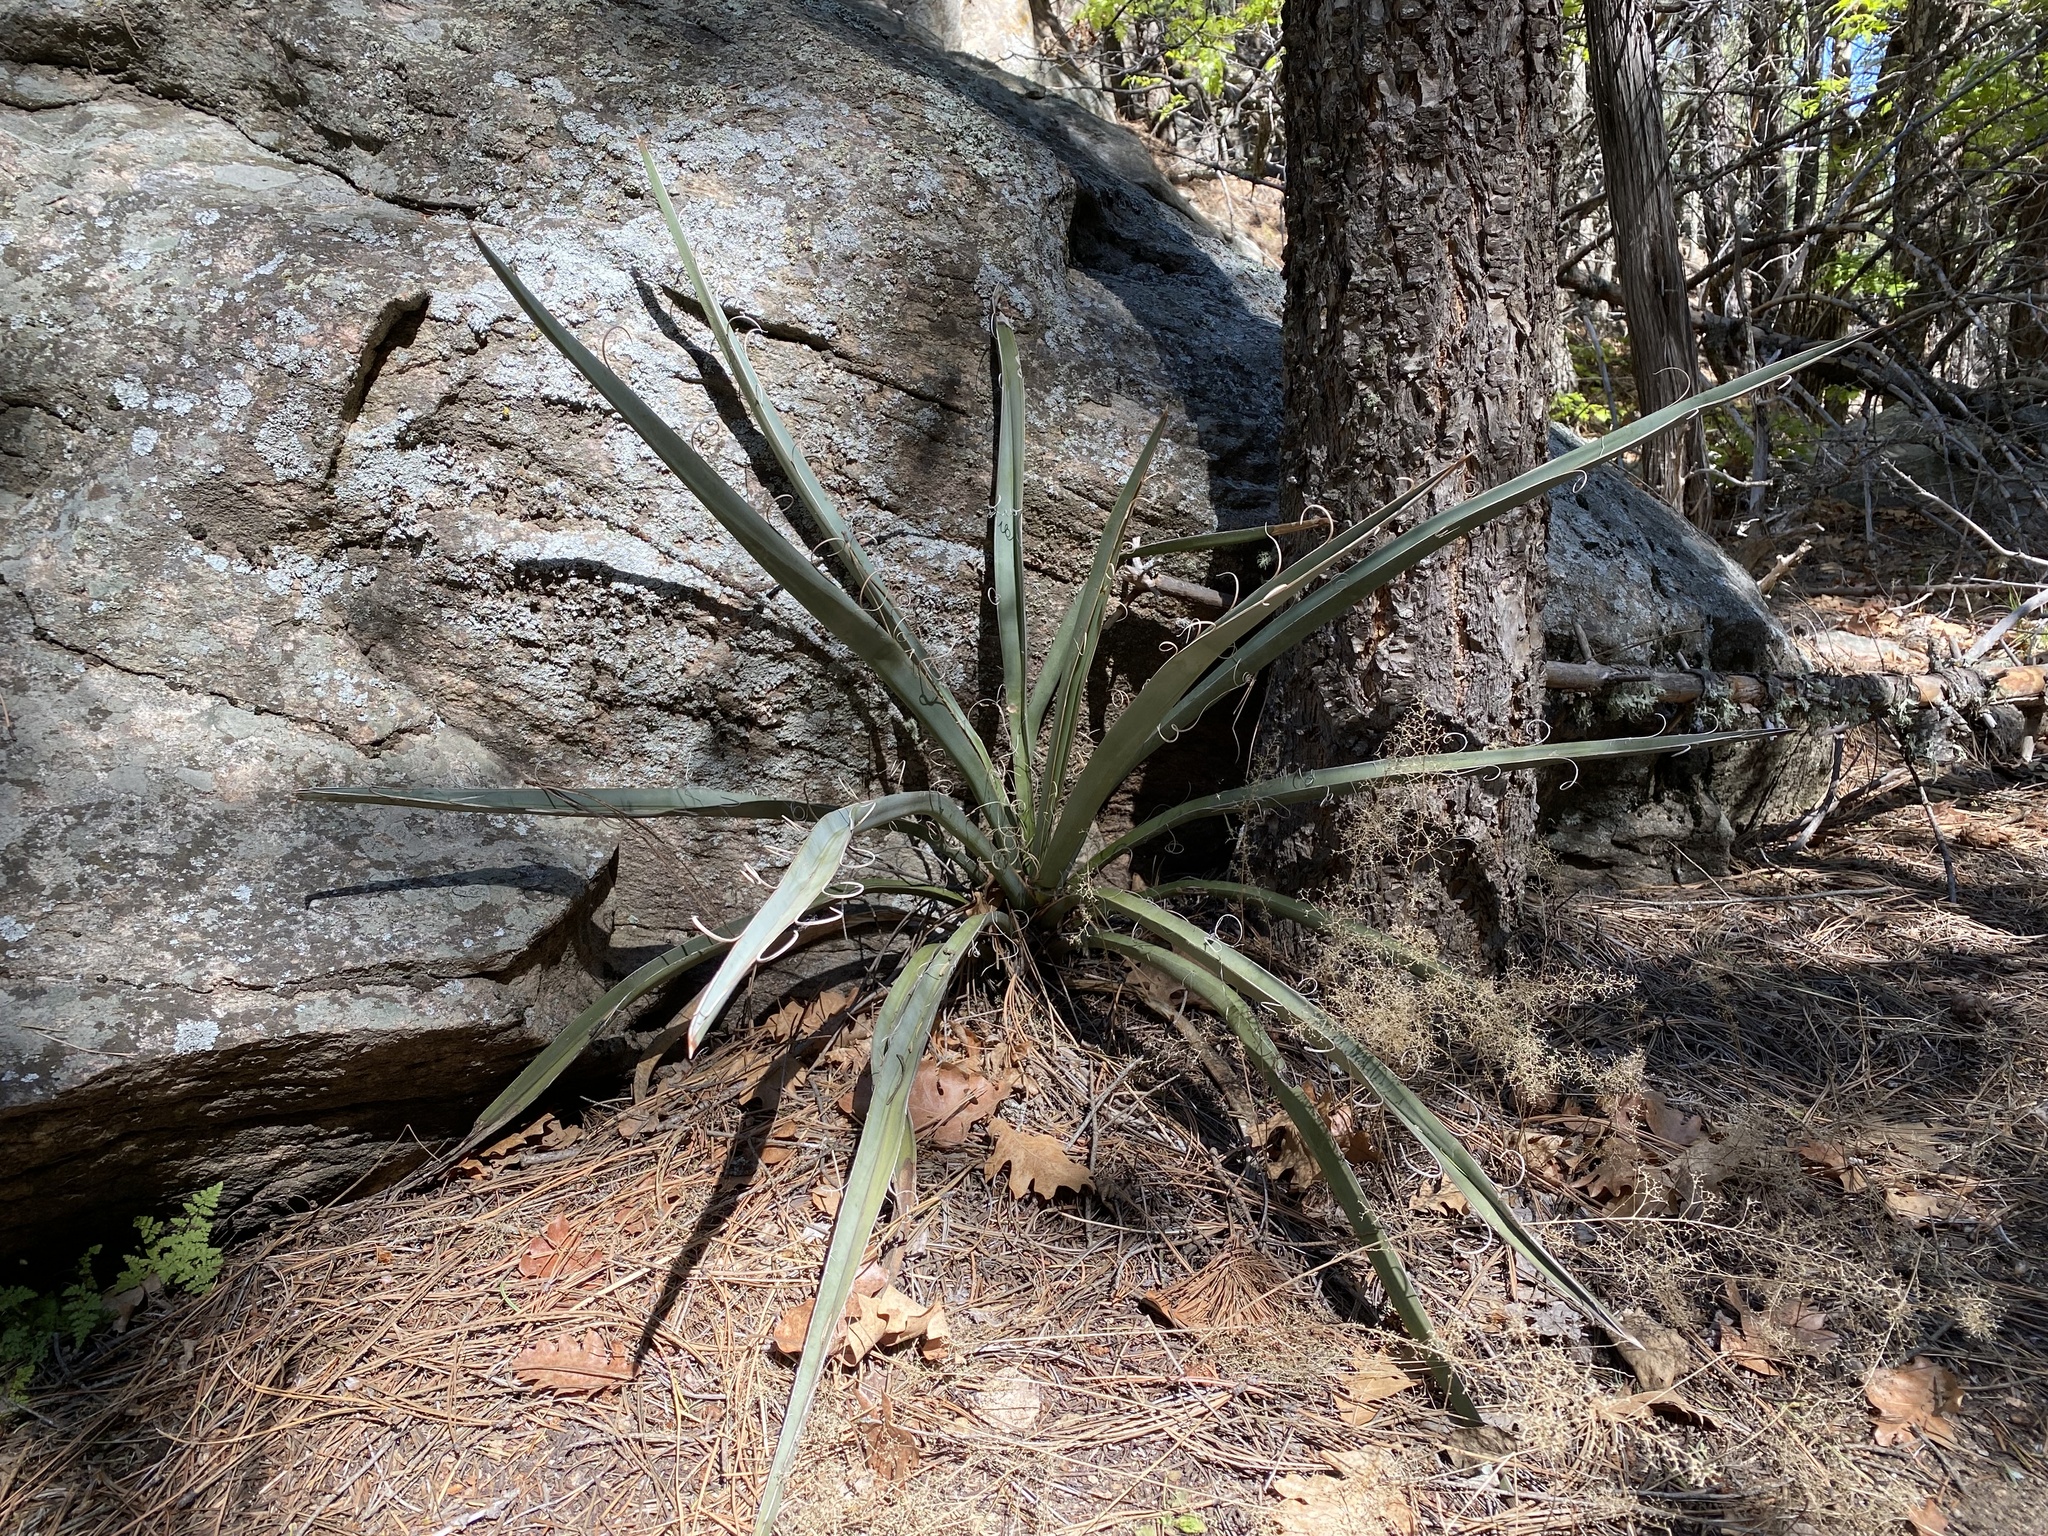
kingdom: Plantae
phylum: Tracheophyta
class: Liliopsida
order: Asparagales
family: Asparagaceae
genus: Yucca
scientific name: Yucca baccata
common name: Banana yucca
